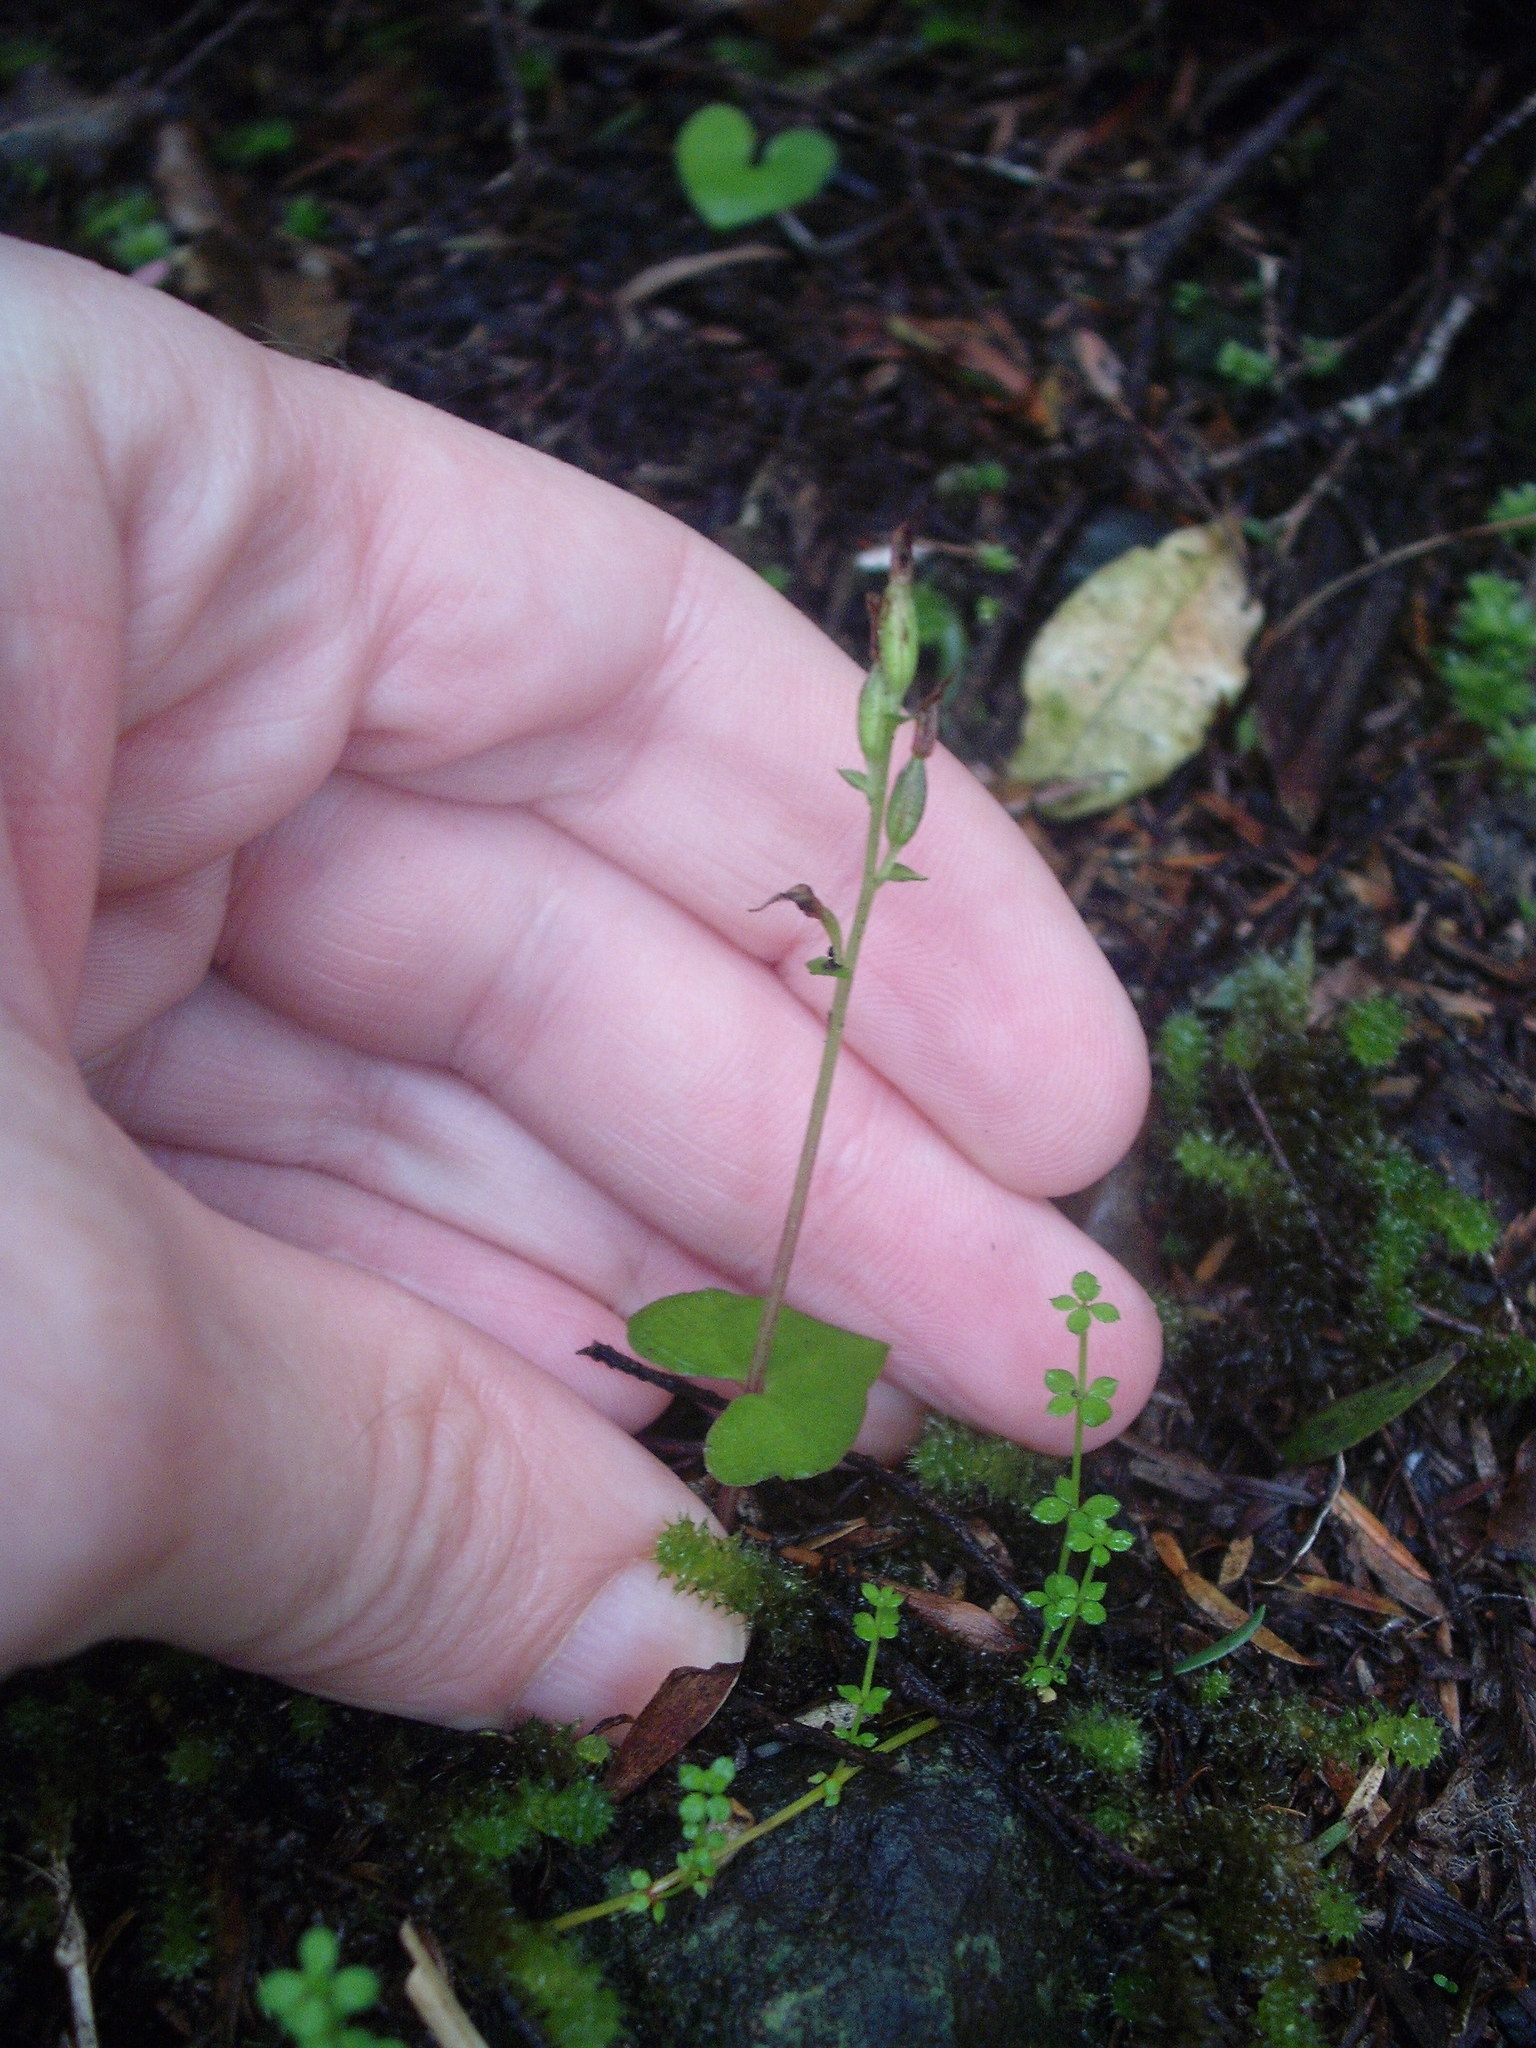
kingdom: Plantae
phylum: Tracheophyta
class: Liliopsida
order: Asparagales
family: Orchidaceae
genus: Acianthus
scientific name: Acianthus sinclairii
